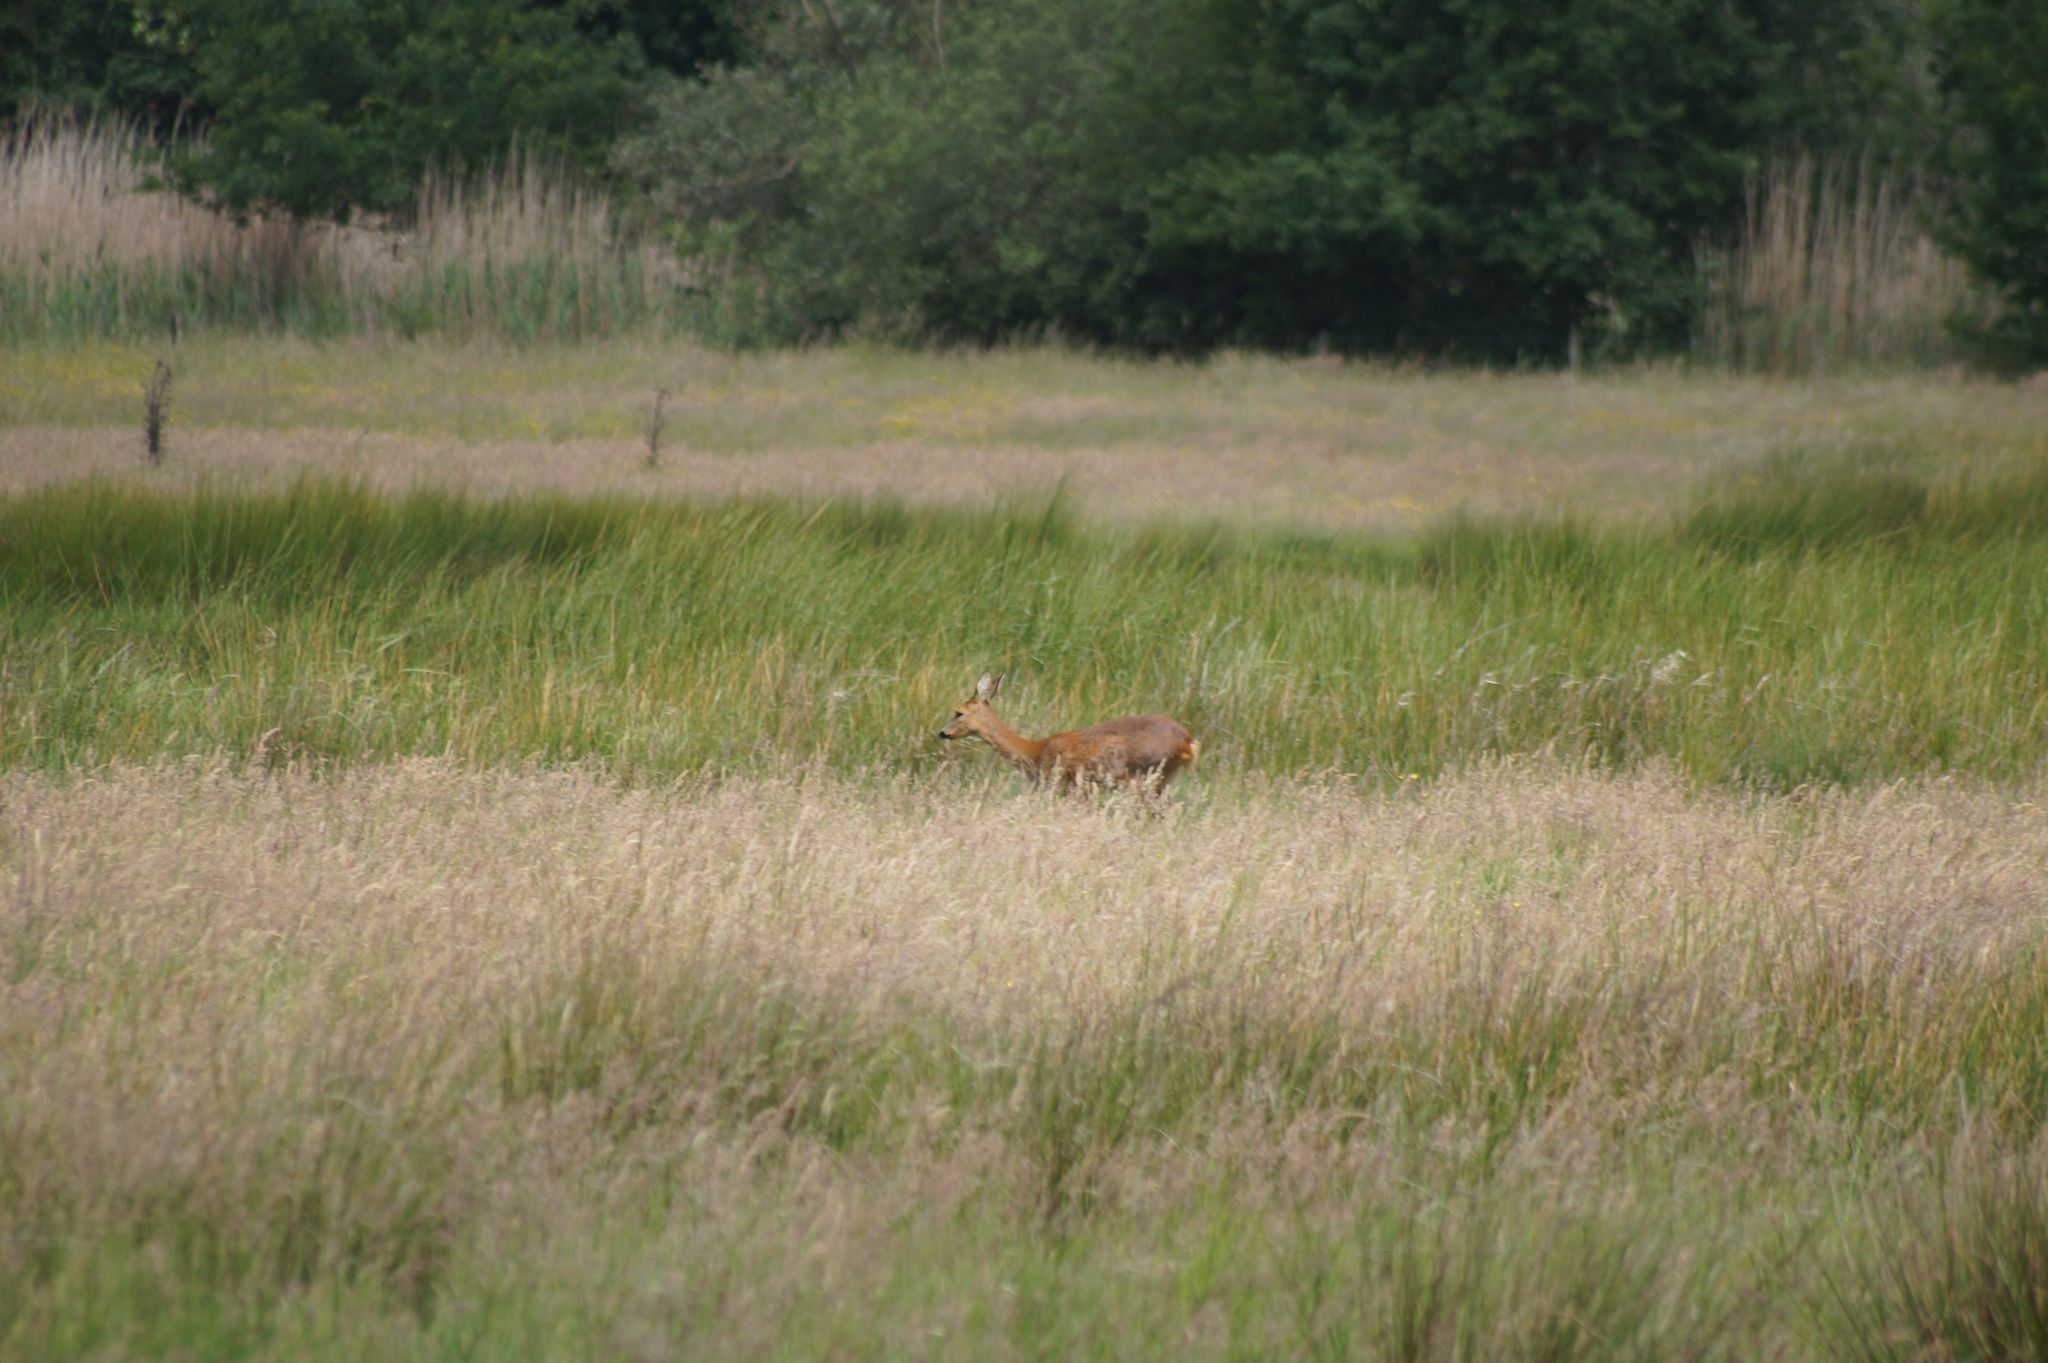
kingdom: Animalia
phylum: Chordata
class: Mammalia
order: Artiodactyla
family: Cervidae
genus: Capreolus
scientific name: Capreolus capreolus
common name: Western roe deer
